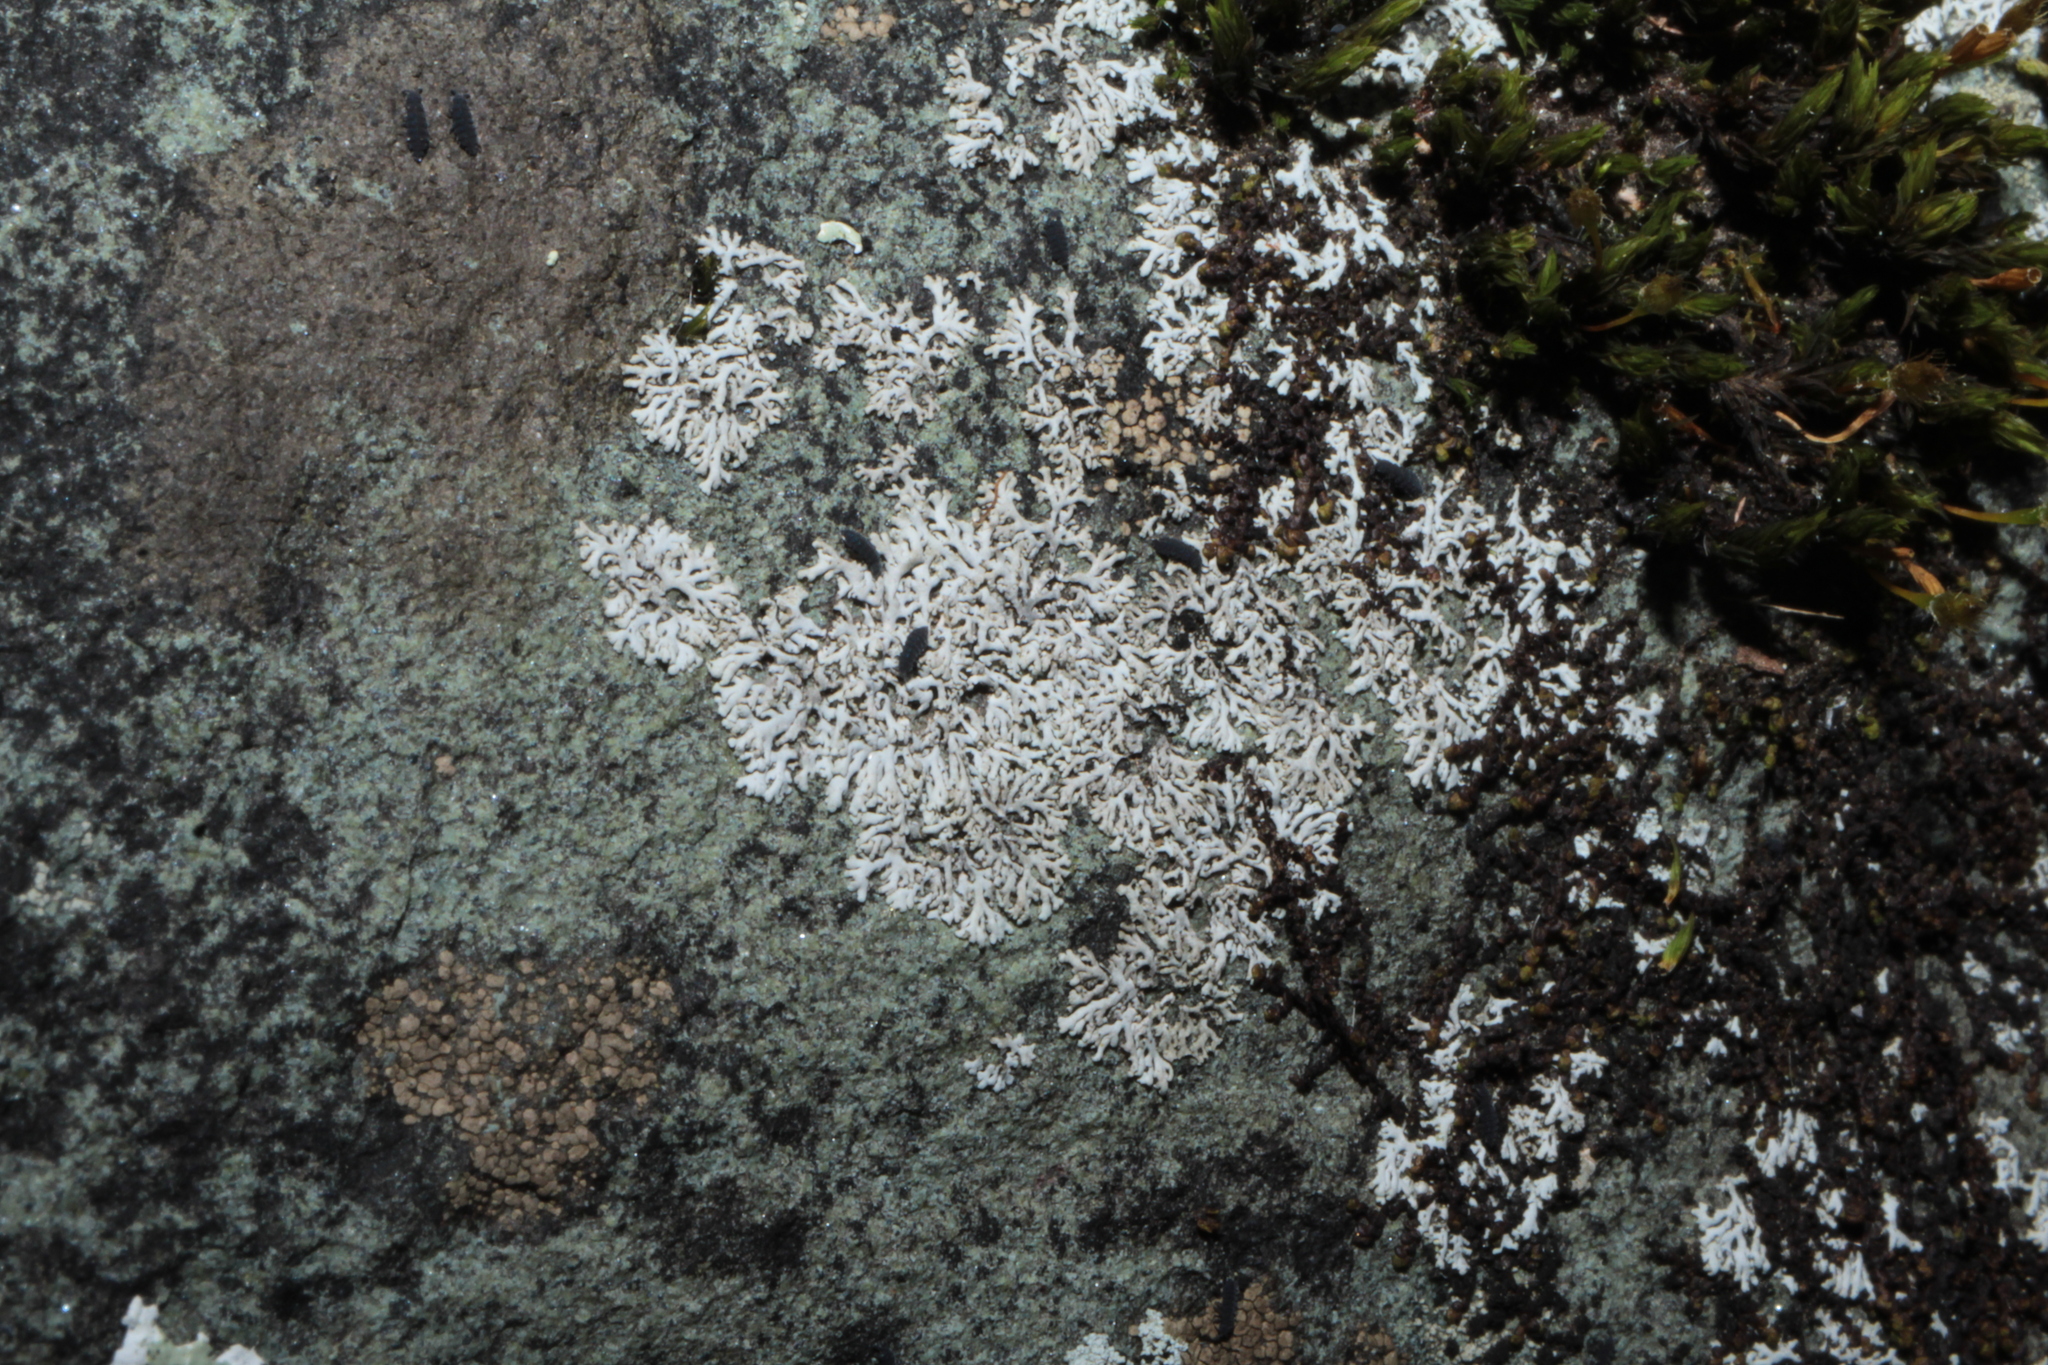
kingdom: Fungi
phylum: Ascomycota
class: Lecanoromycetes
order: Caliciales
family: Physciaceae
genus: Physcia
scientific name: Physcia subtilis
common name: Slender rosette lichen
